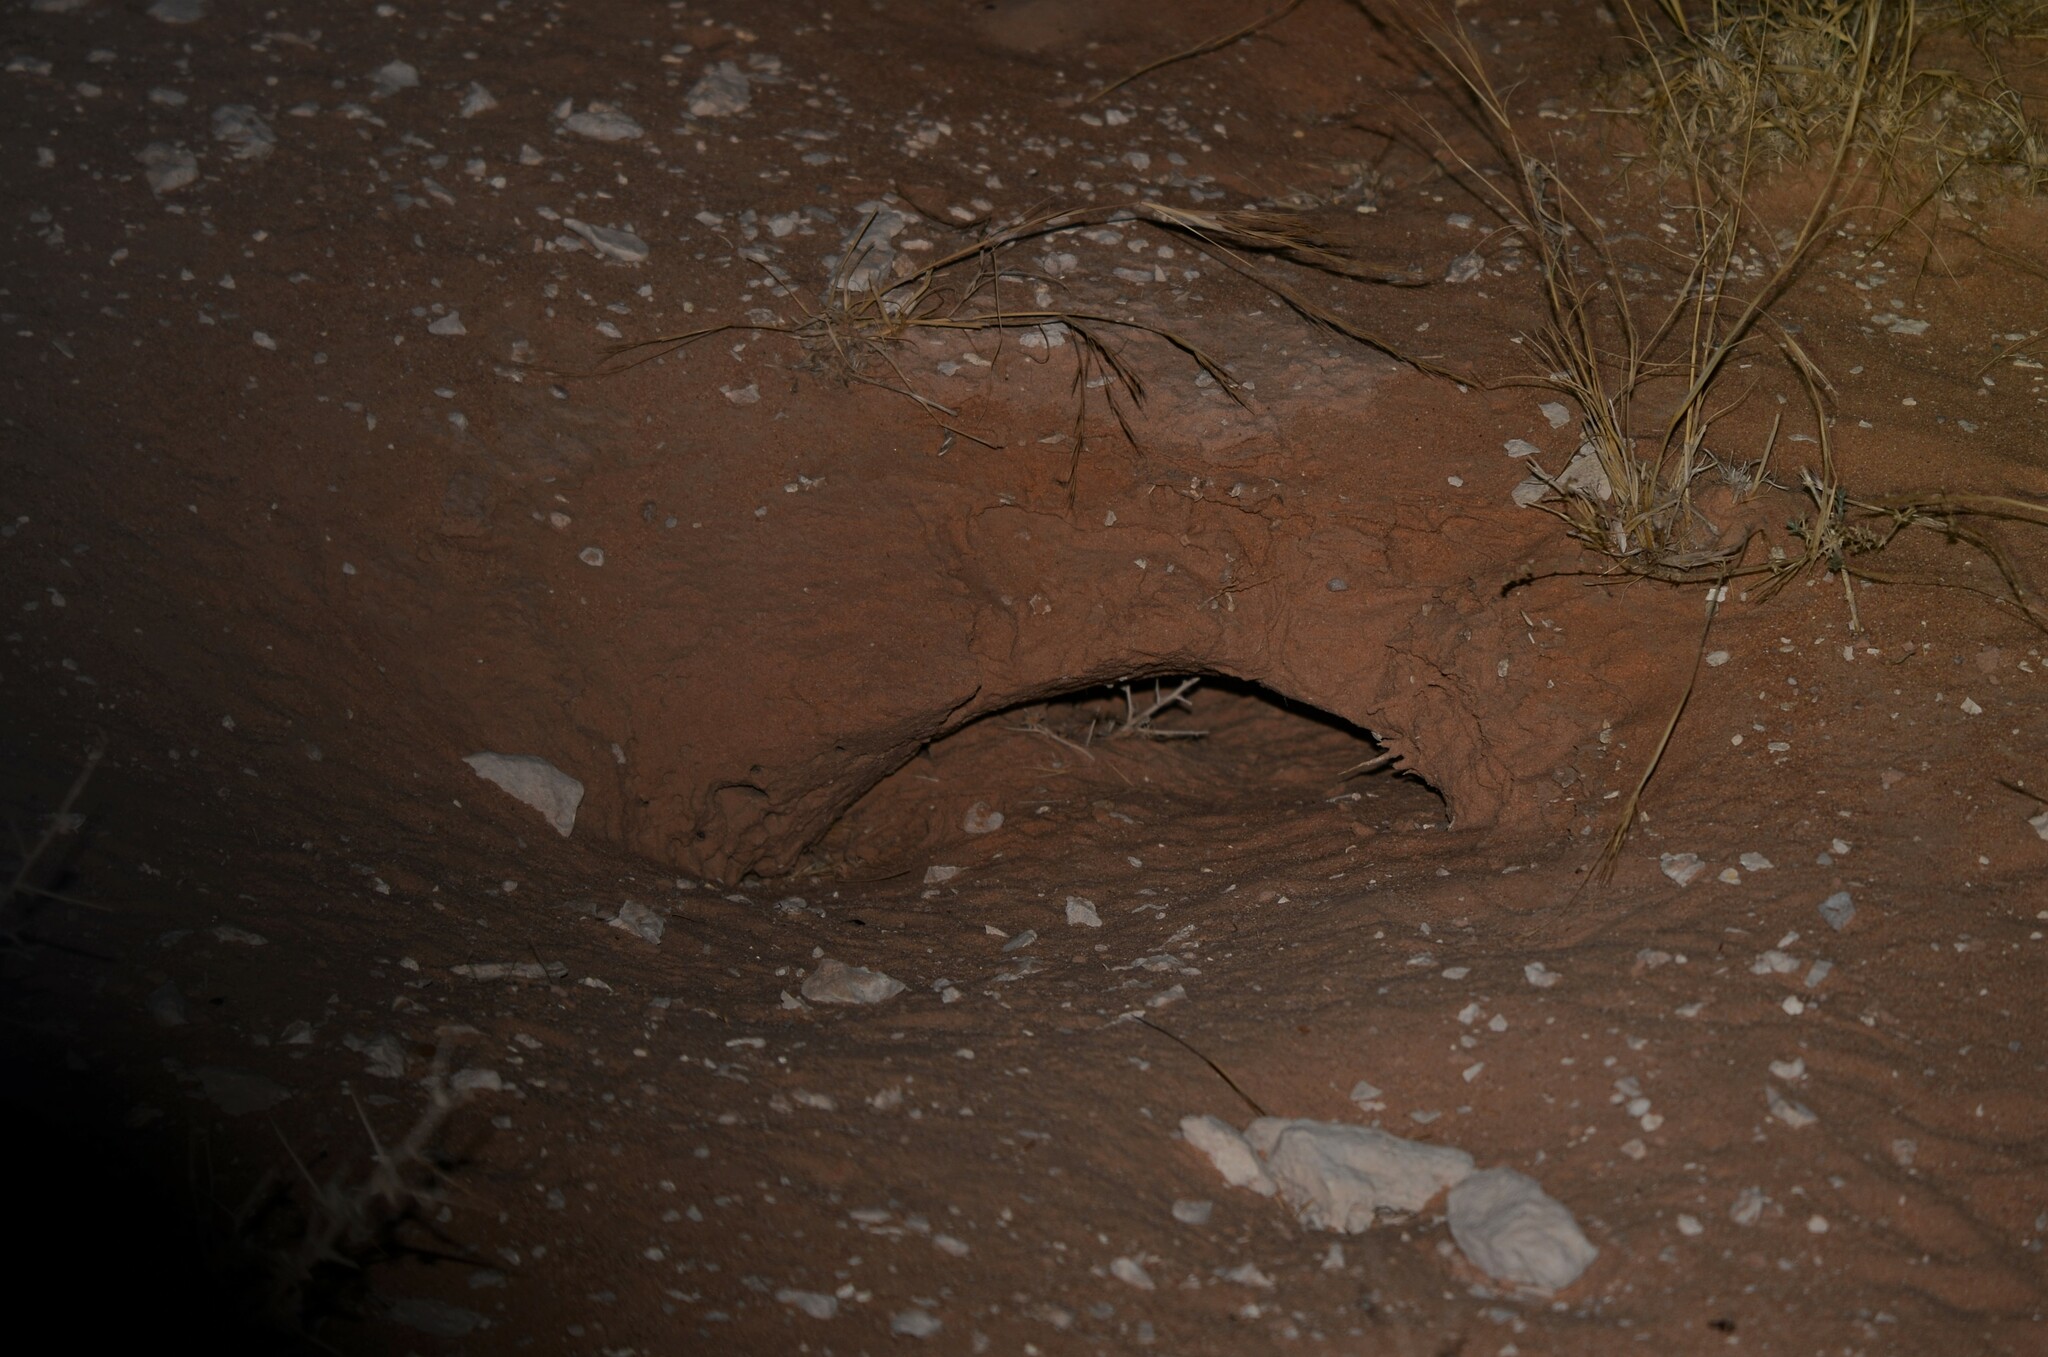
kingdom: Animalia
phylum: Chordata
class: Squamata
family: Agamidae
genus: Uromastyx
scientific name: Uromastyx aegyptia
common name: Egyptian mastigure
